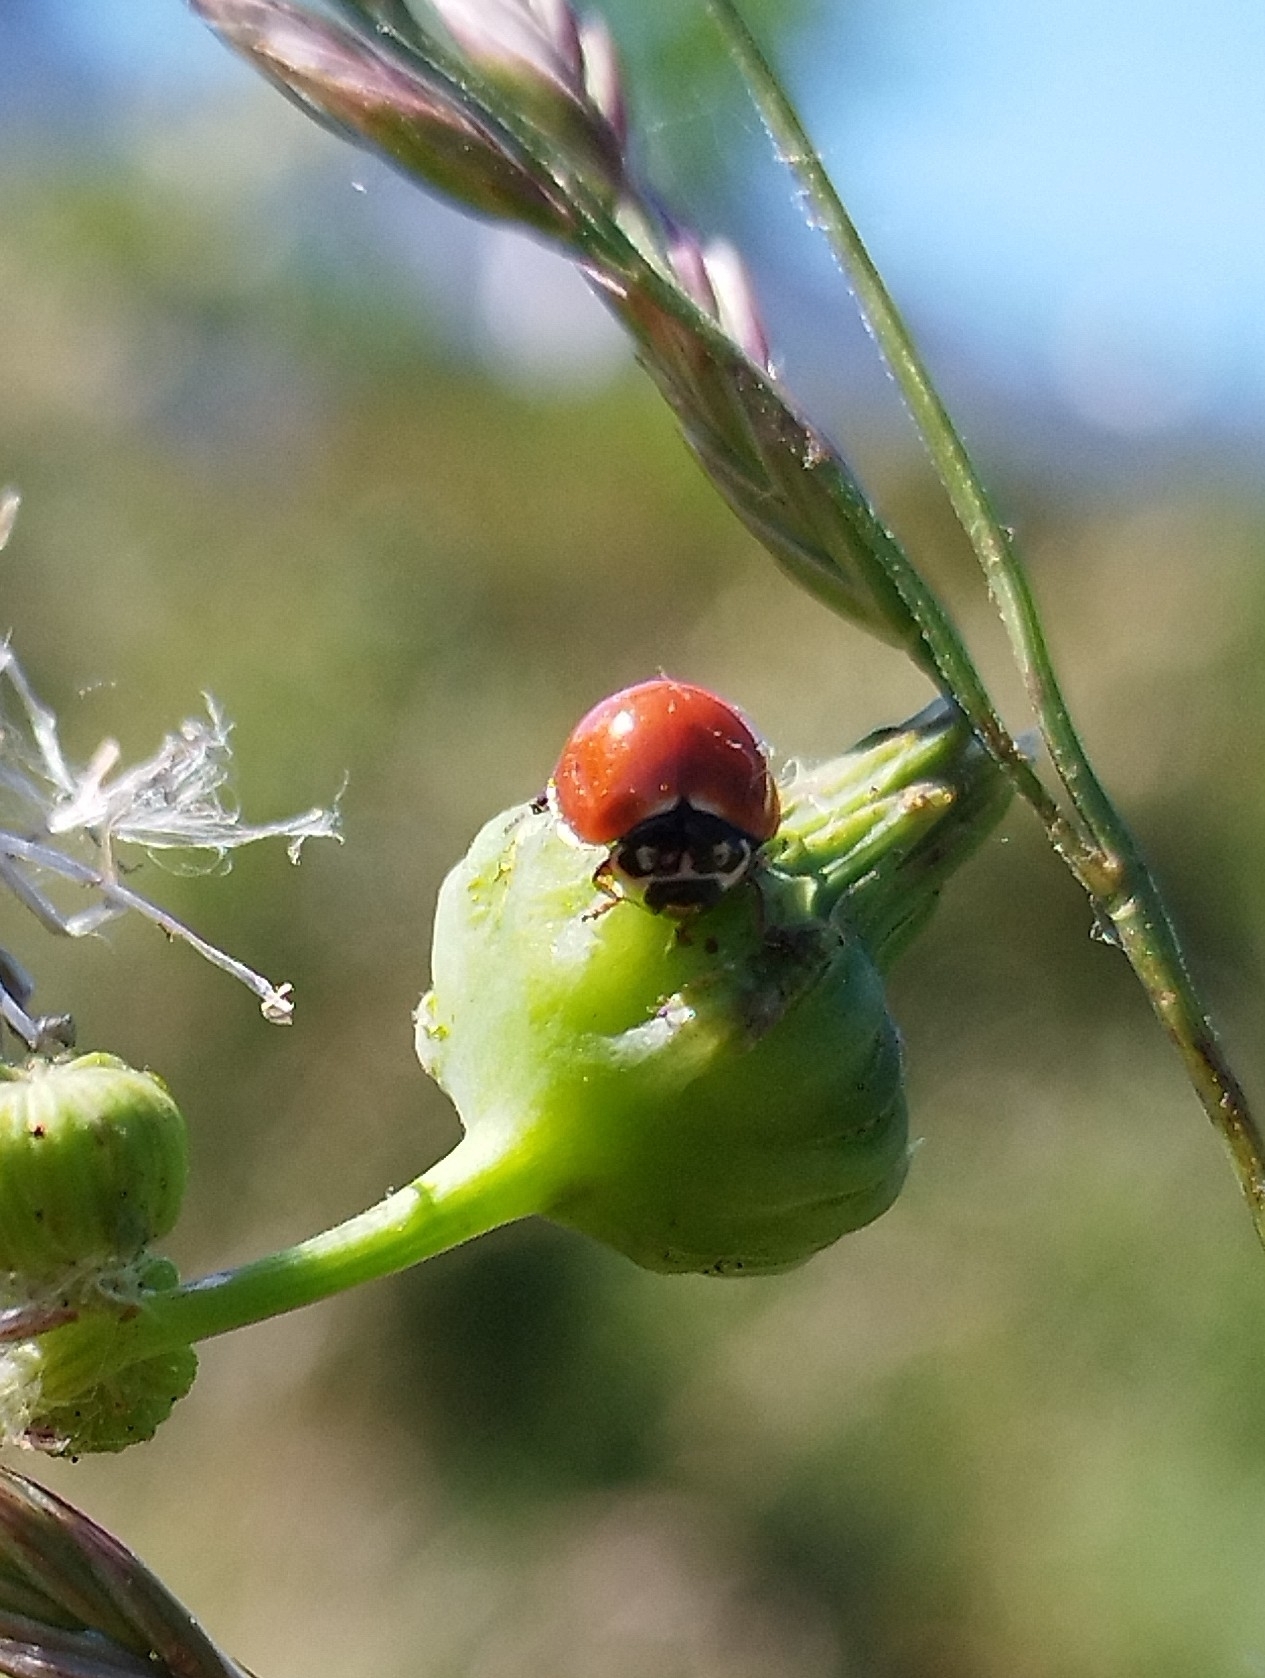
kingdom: Animalia
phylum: Arthropoda
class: Insecta
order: Coleoptera
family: Coccinellidae
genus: Cycloneda
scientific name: Cycloneda sanguinea
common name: Ladybird beetle
